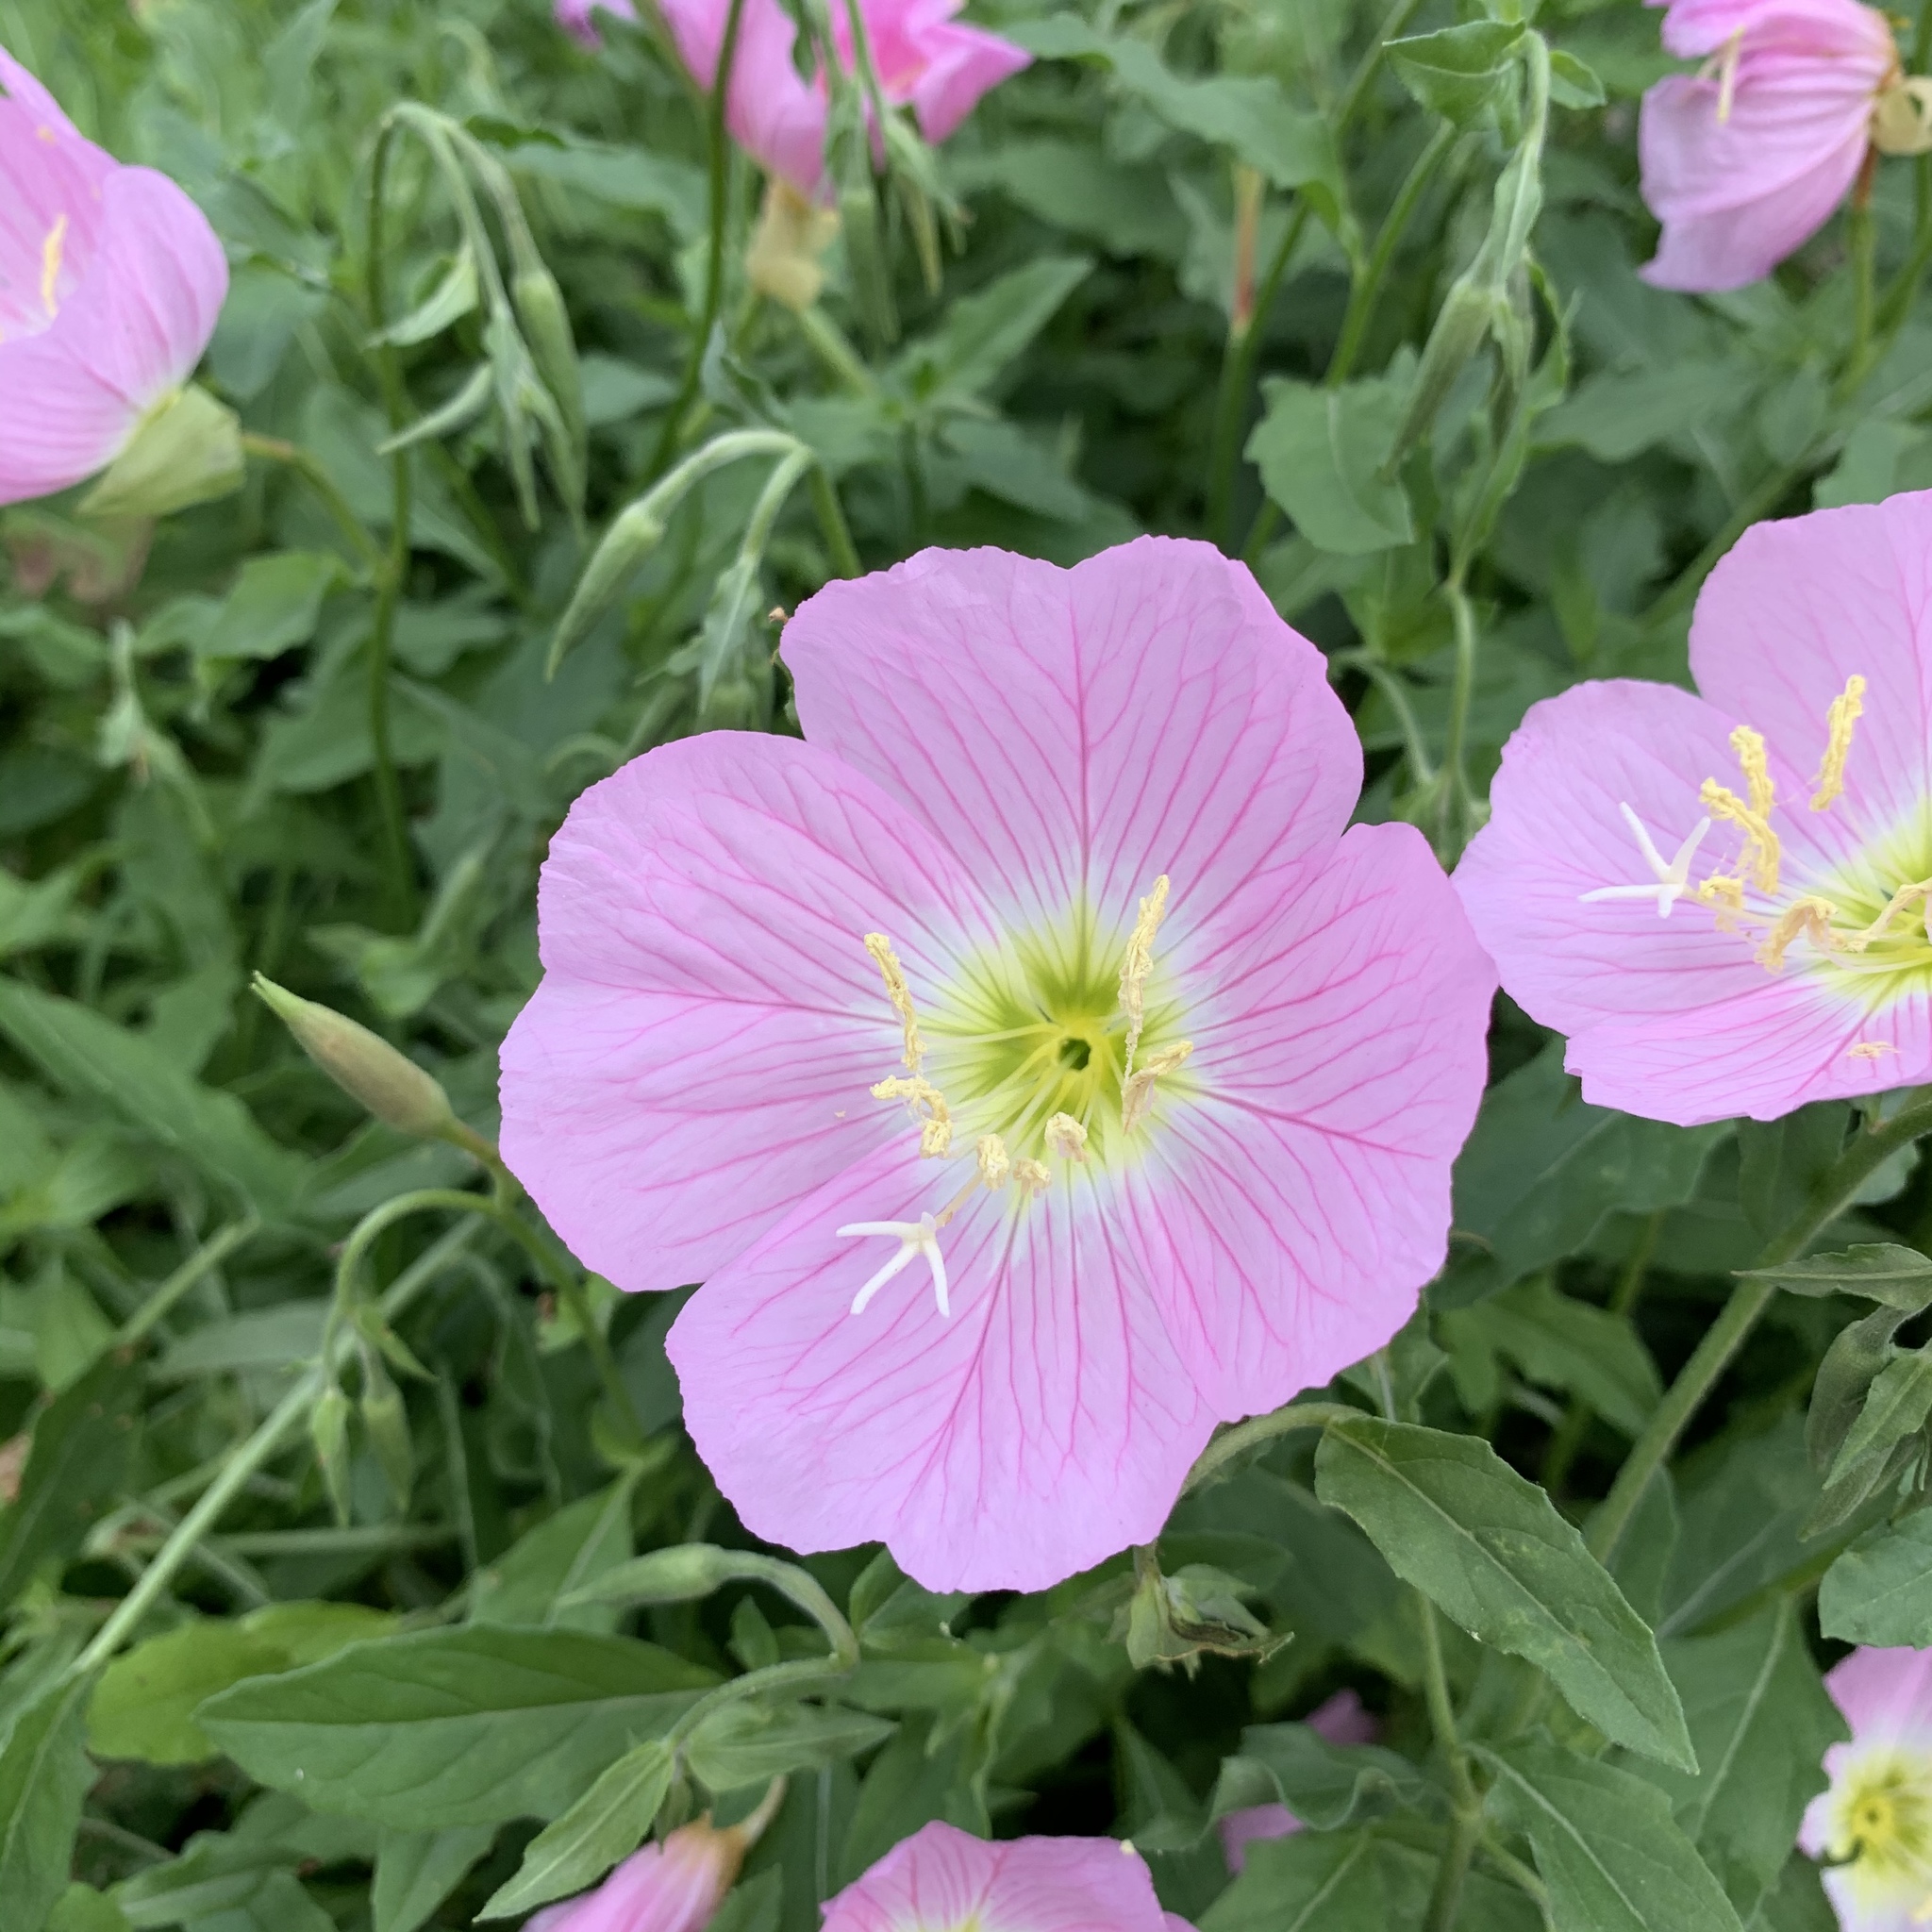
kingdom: Plantae
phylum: Tracheophyta
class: Magnoliopsida
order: Myrtales
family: Onagraceae
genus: Oenothera
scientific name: Oenothera speciosa
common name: White evening-primrose
